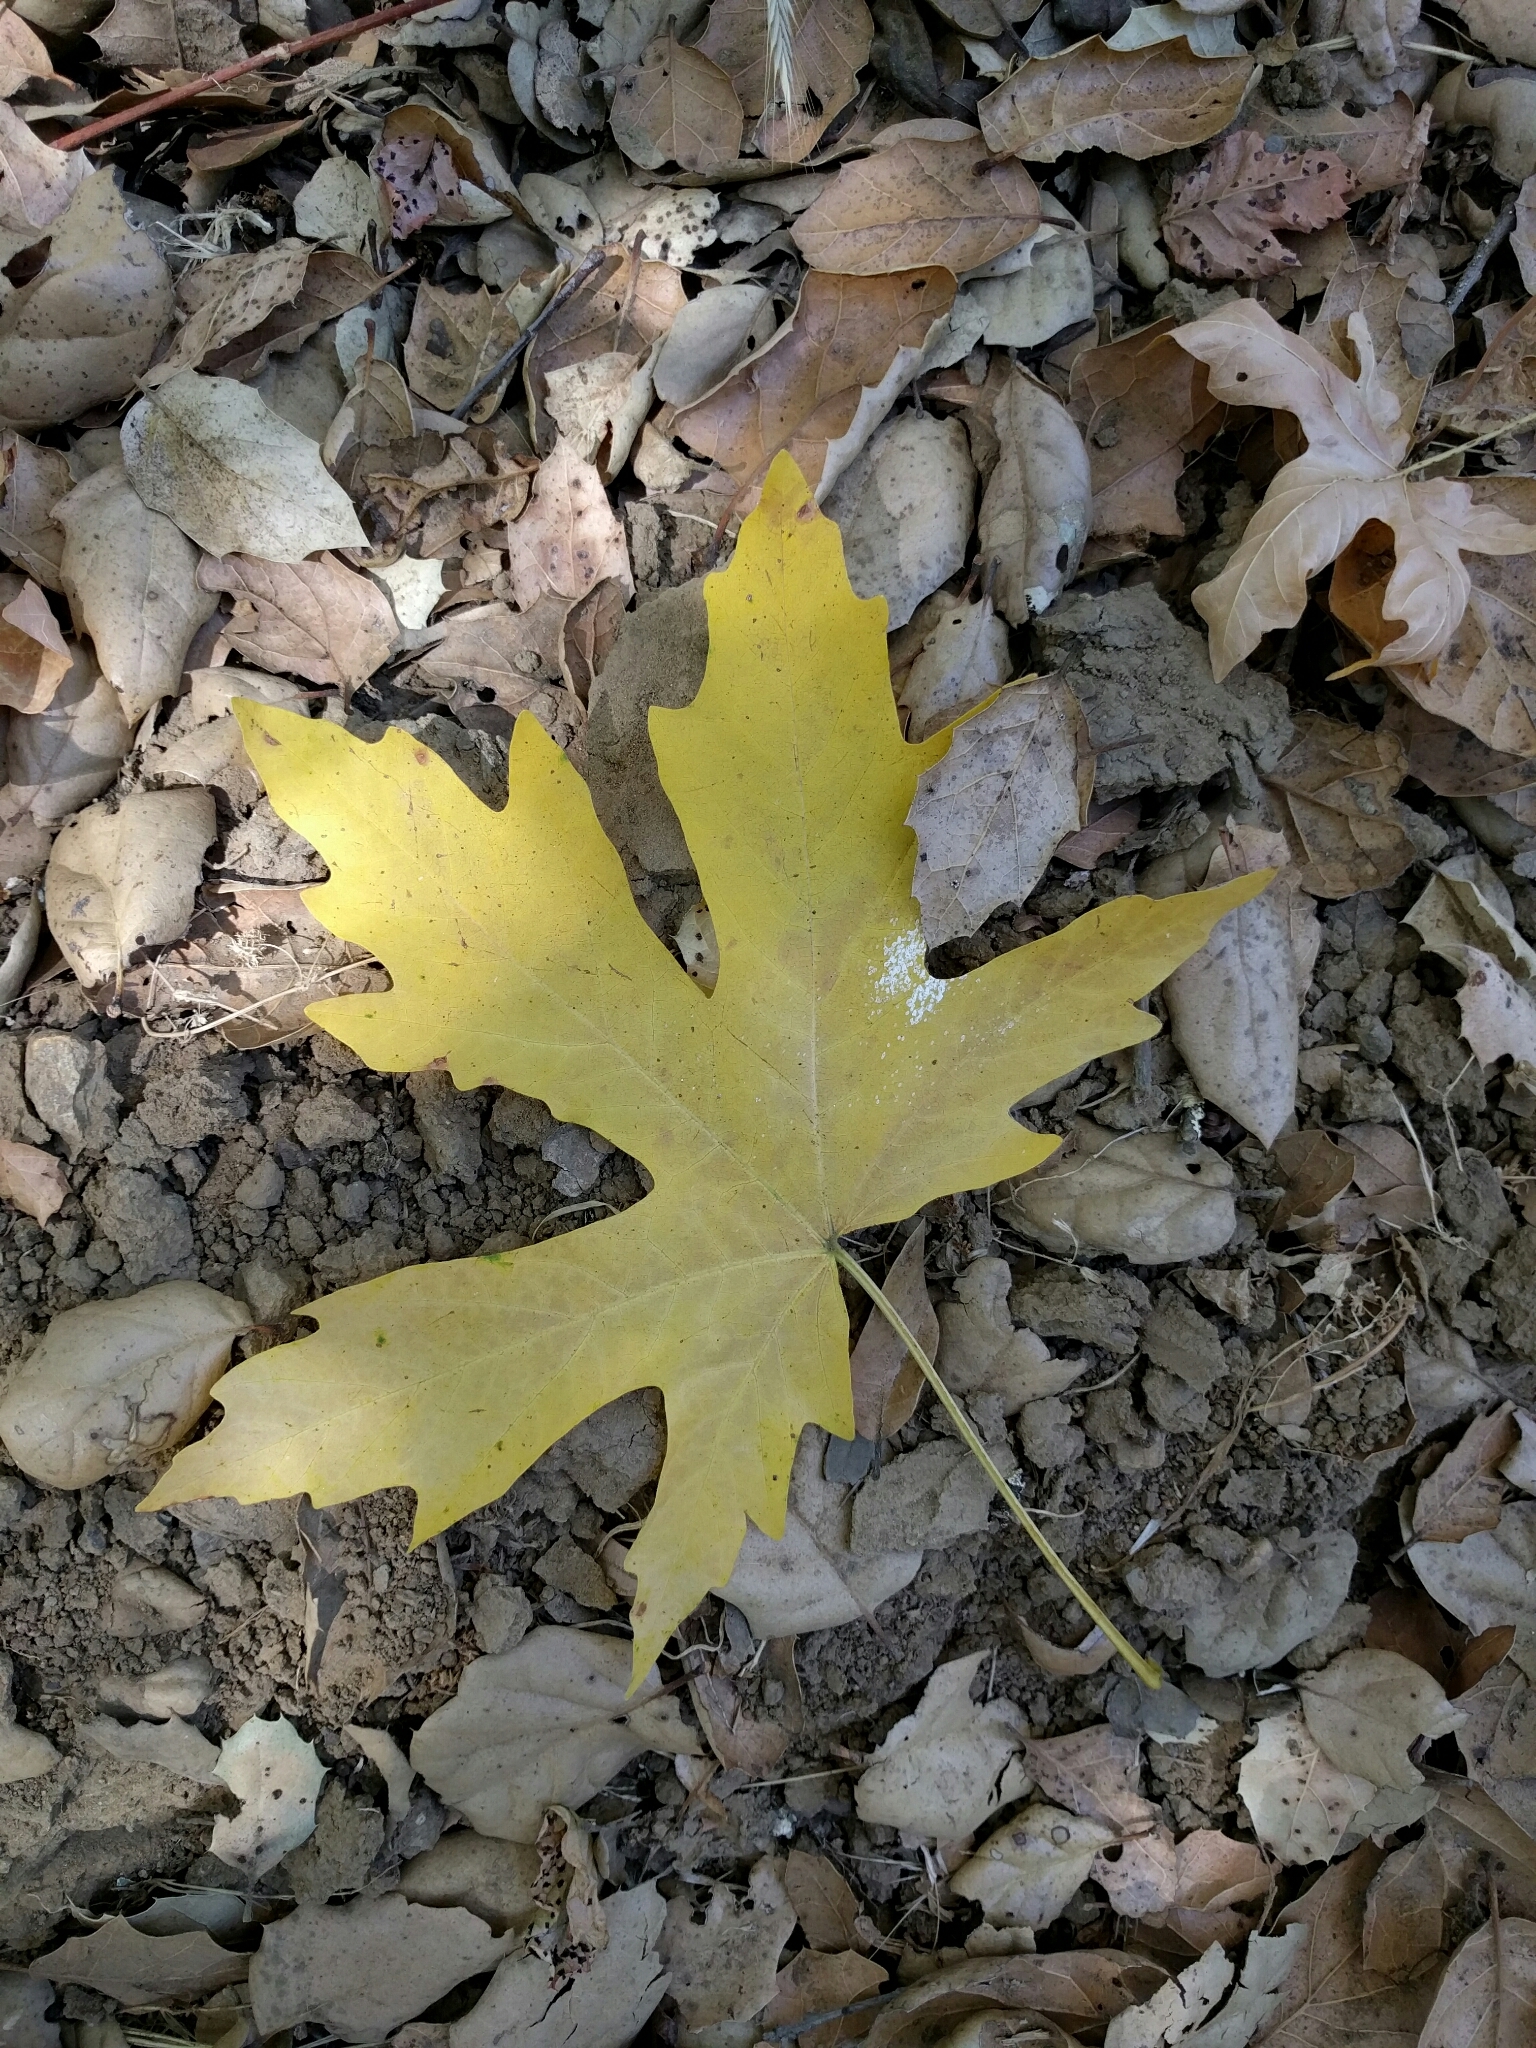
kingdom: Plantae
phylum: Tracheophyta
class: Magnoliopsida
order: Sapindales
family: Sapindaceae
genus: Acer
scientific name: Acer macrophyllum
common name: Oregon maple
